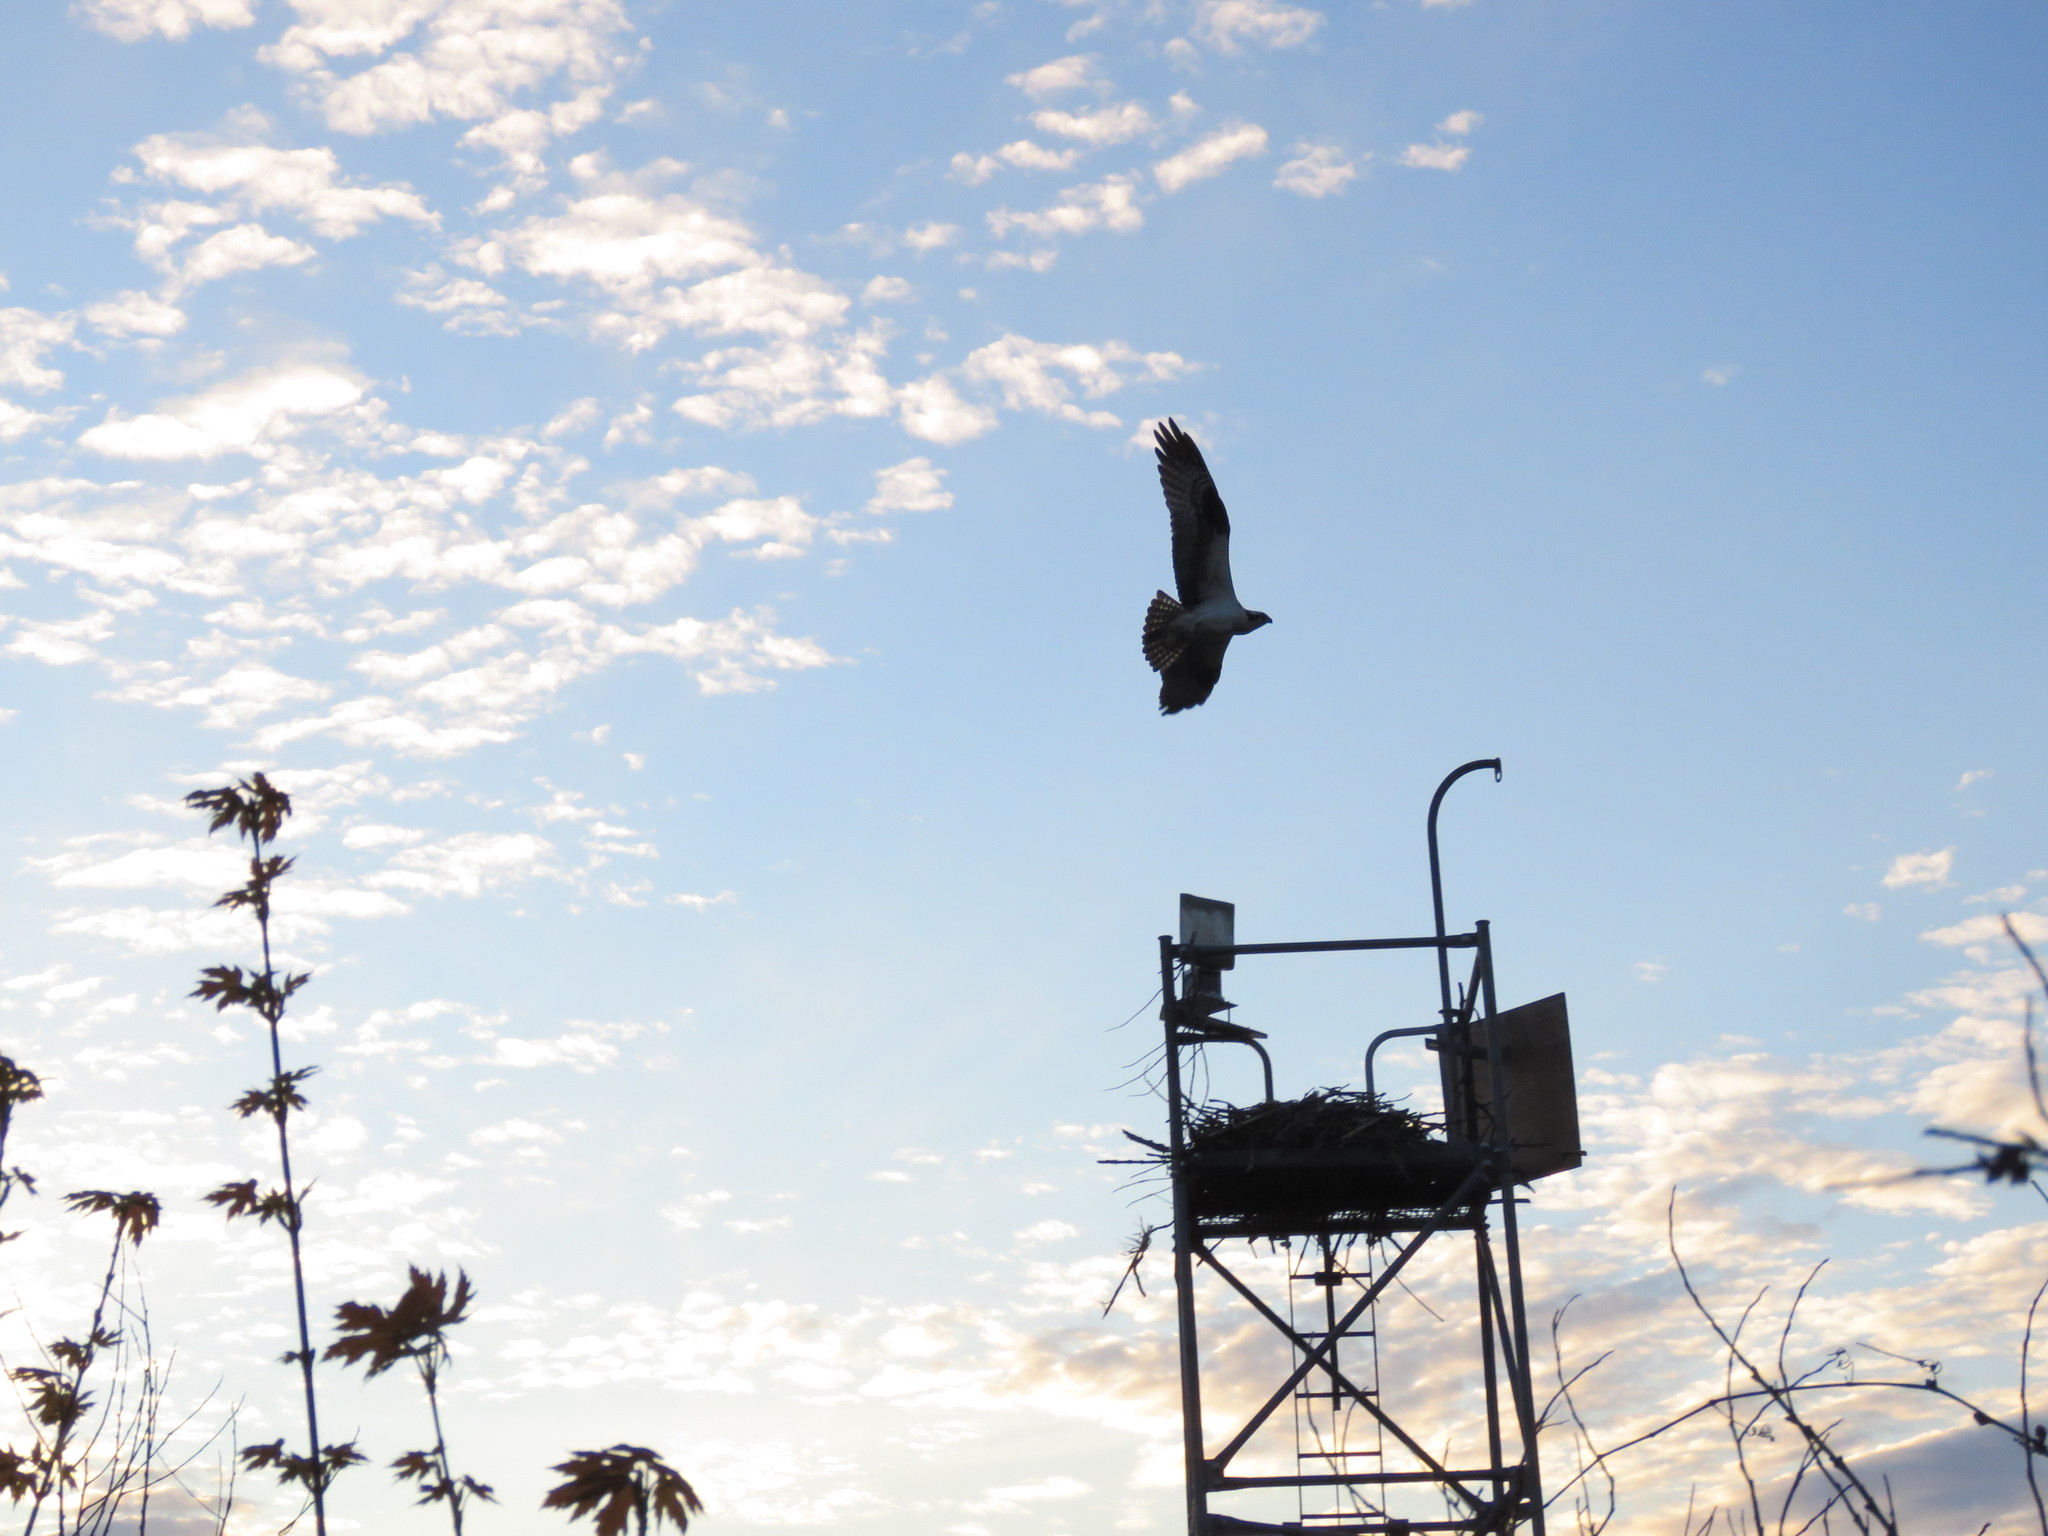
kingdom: Animalia
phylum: Chordata
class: Aves
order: Accipitriformes
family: Pandionidae
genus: Pandion
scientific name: Pandion haliaetus
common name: Osprey
